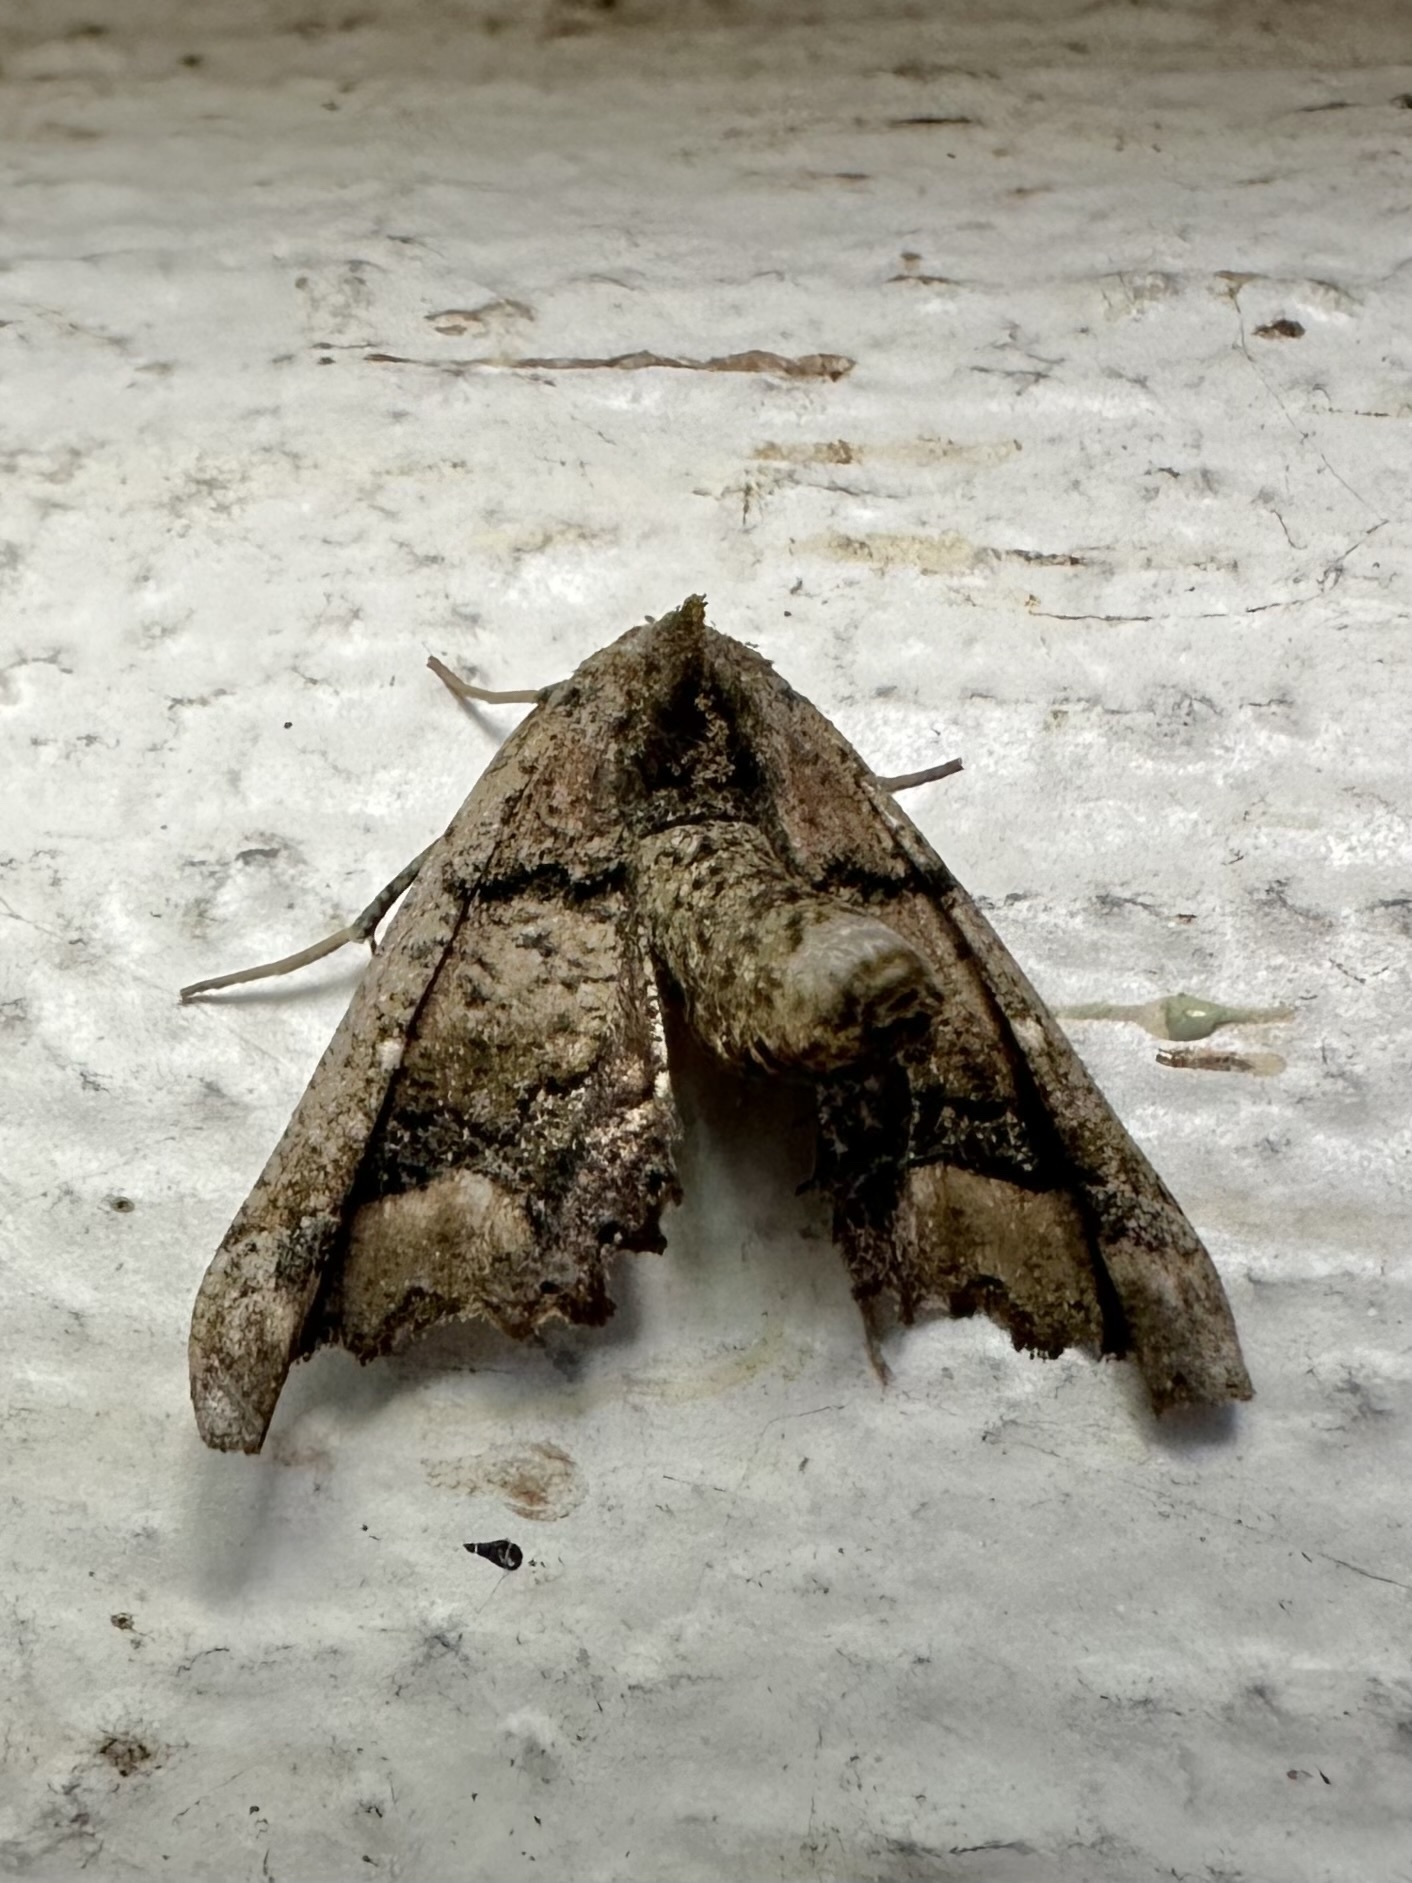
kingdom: Animalia
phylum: Arthropoda
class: Insecta
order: Lepidoptera
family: Geometridae
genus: Pero
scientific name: Pero meskaria
